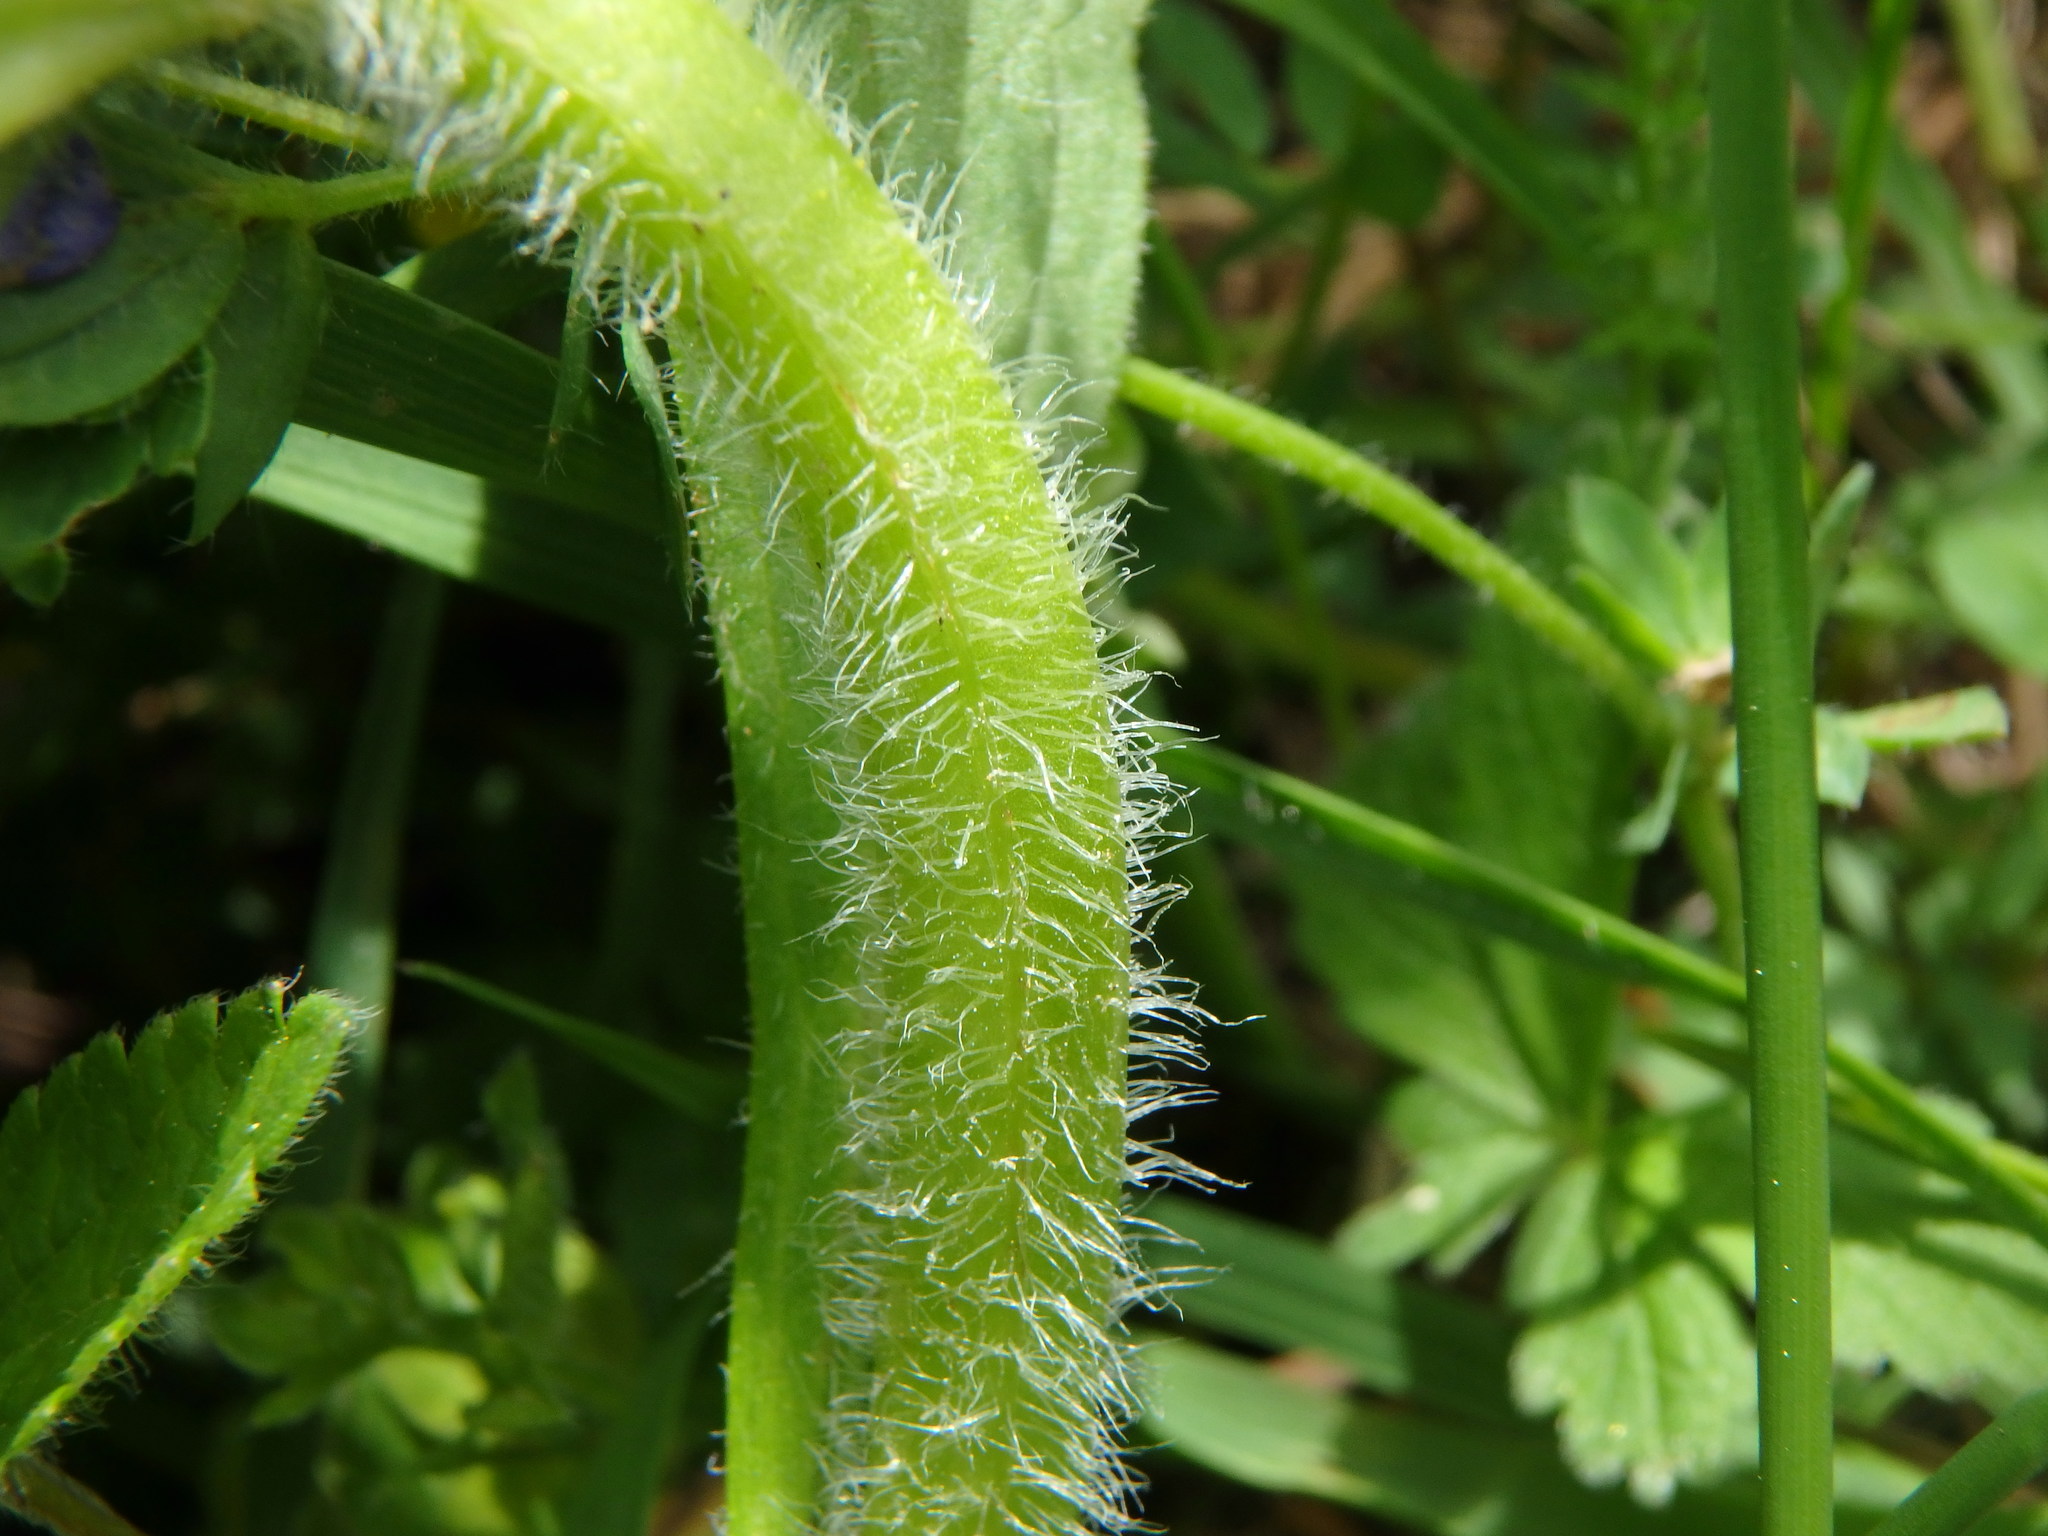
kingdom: Plantae
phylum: Tracheophyta
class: Magnoliopsida
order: Lamiales
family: Lamiaceae
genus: Ajuga
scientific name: Ajuga genevensis
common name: Blue bugle
